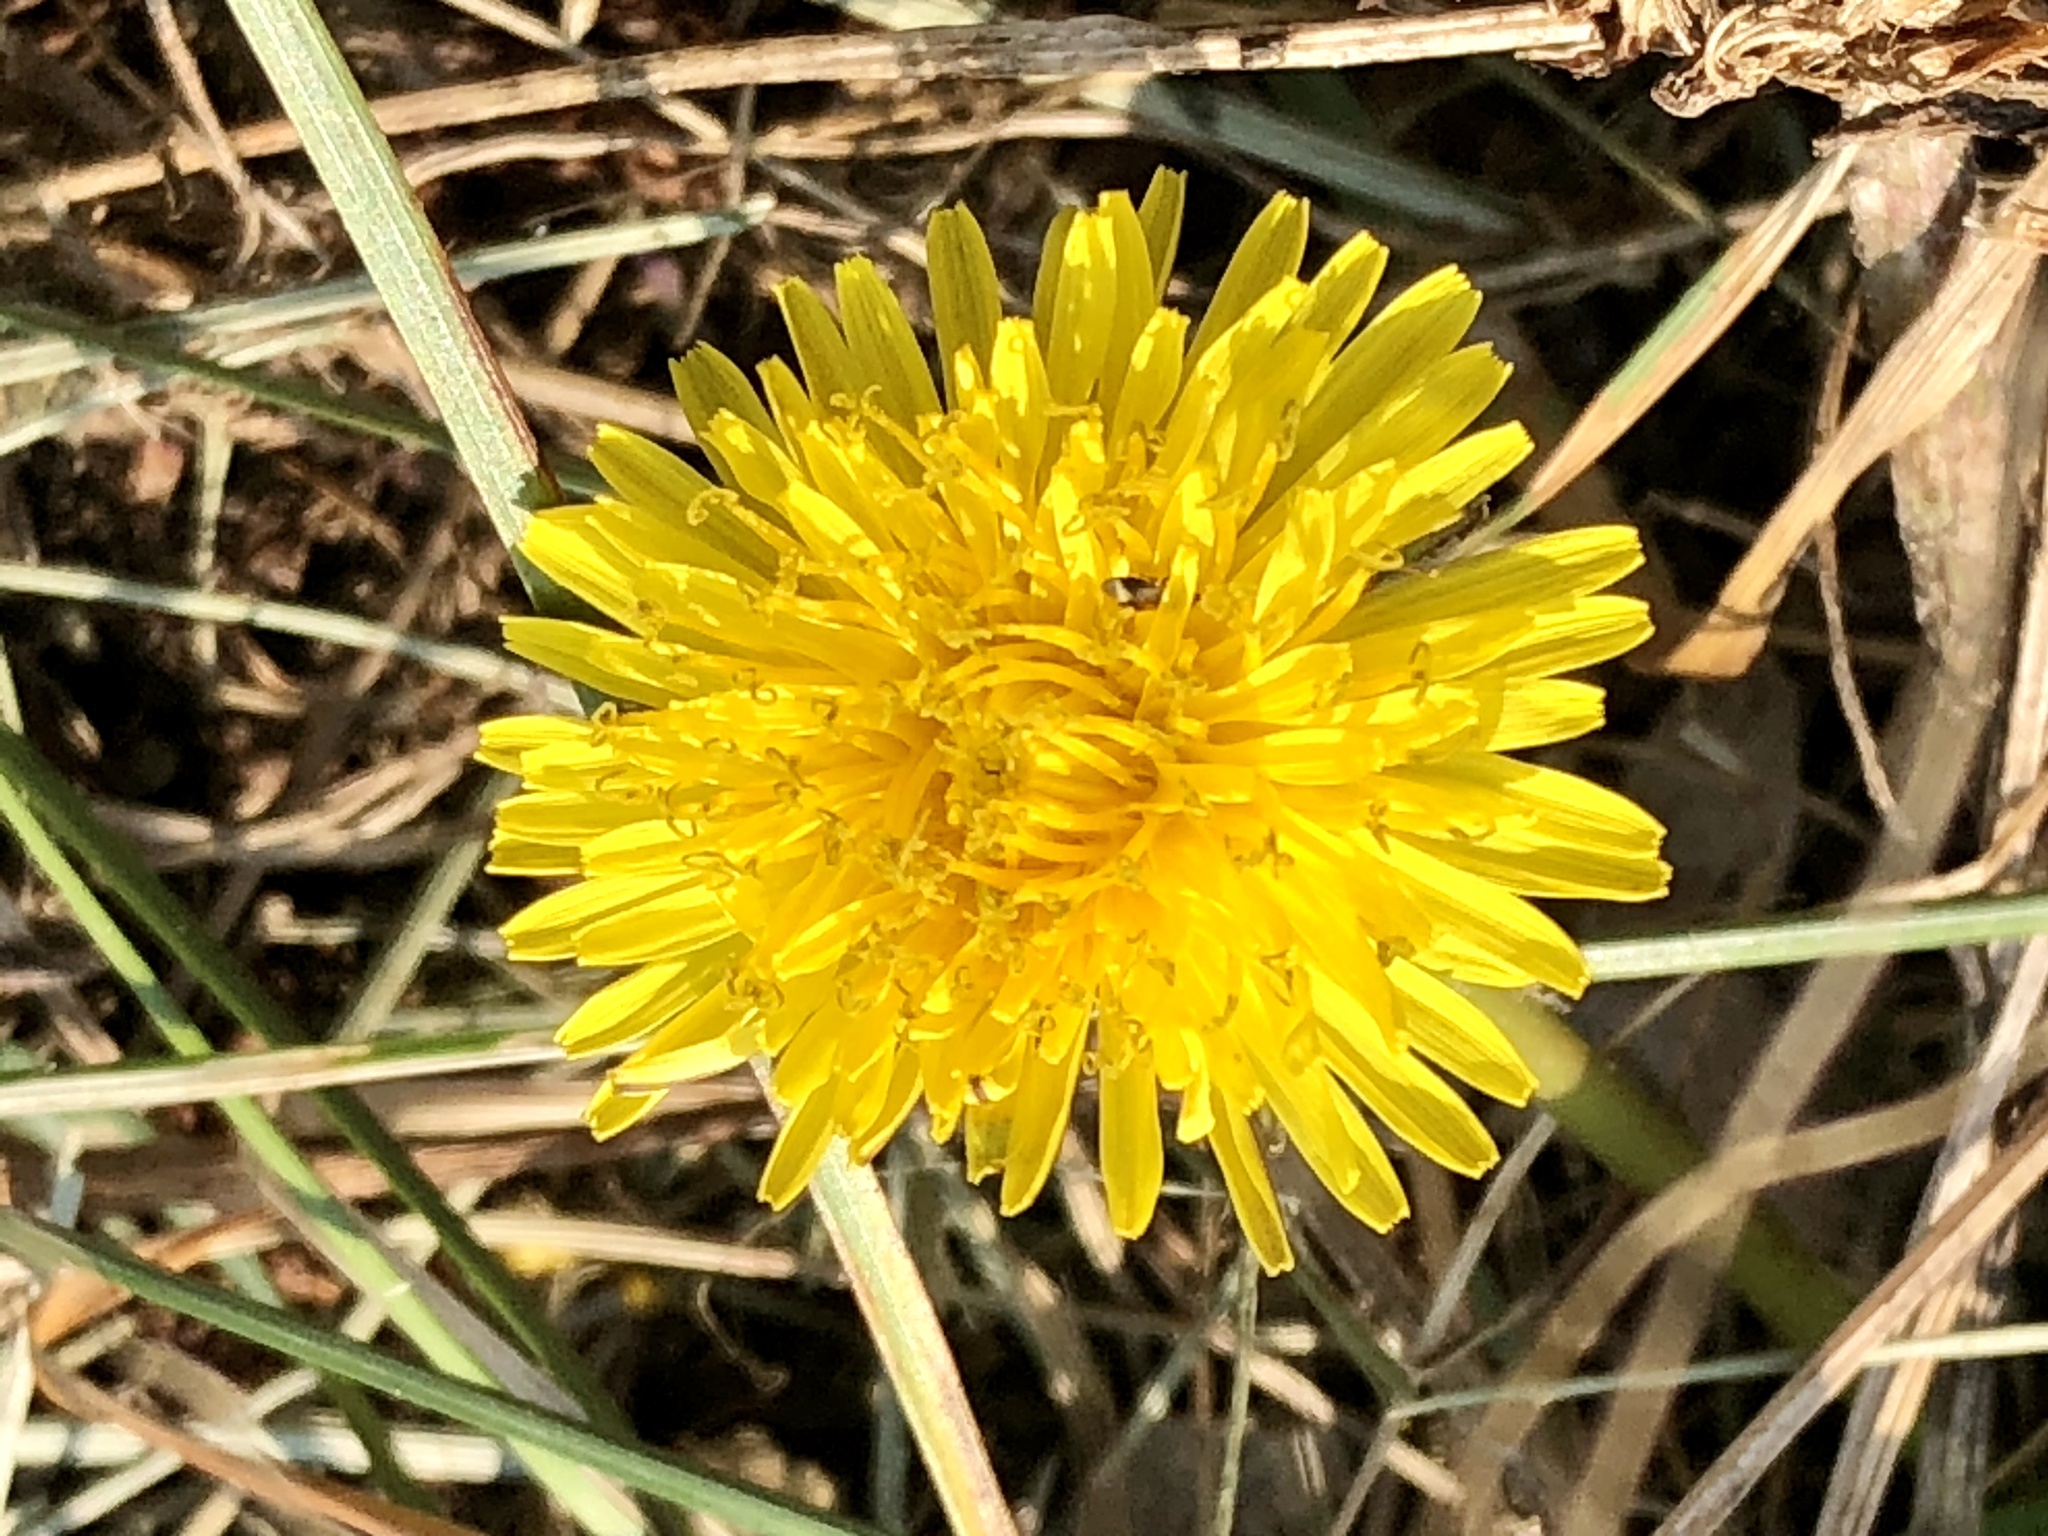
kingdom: Plantae
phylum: Tracheophyta
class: Magnoliopsida
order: Asterales
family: Asteraceae
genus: Taraxacum
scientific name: Taraxacum officinale
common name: Common dandelion
